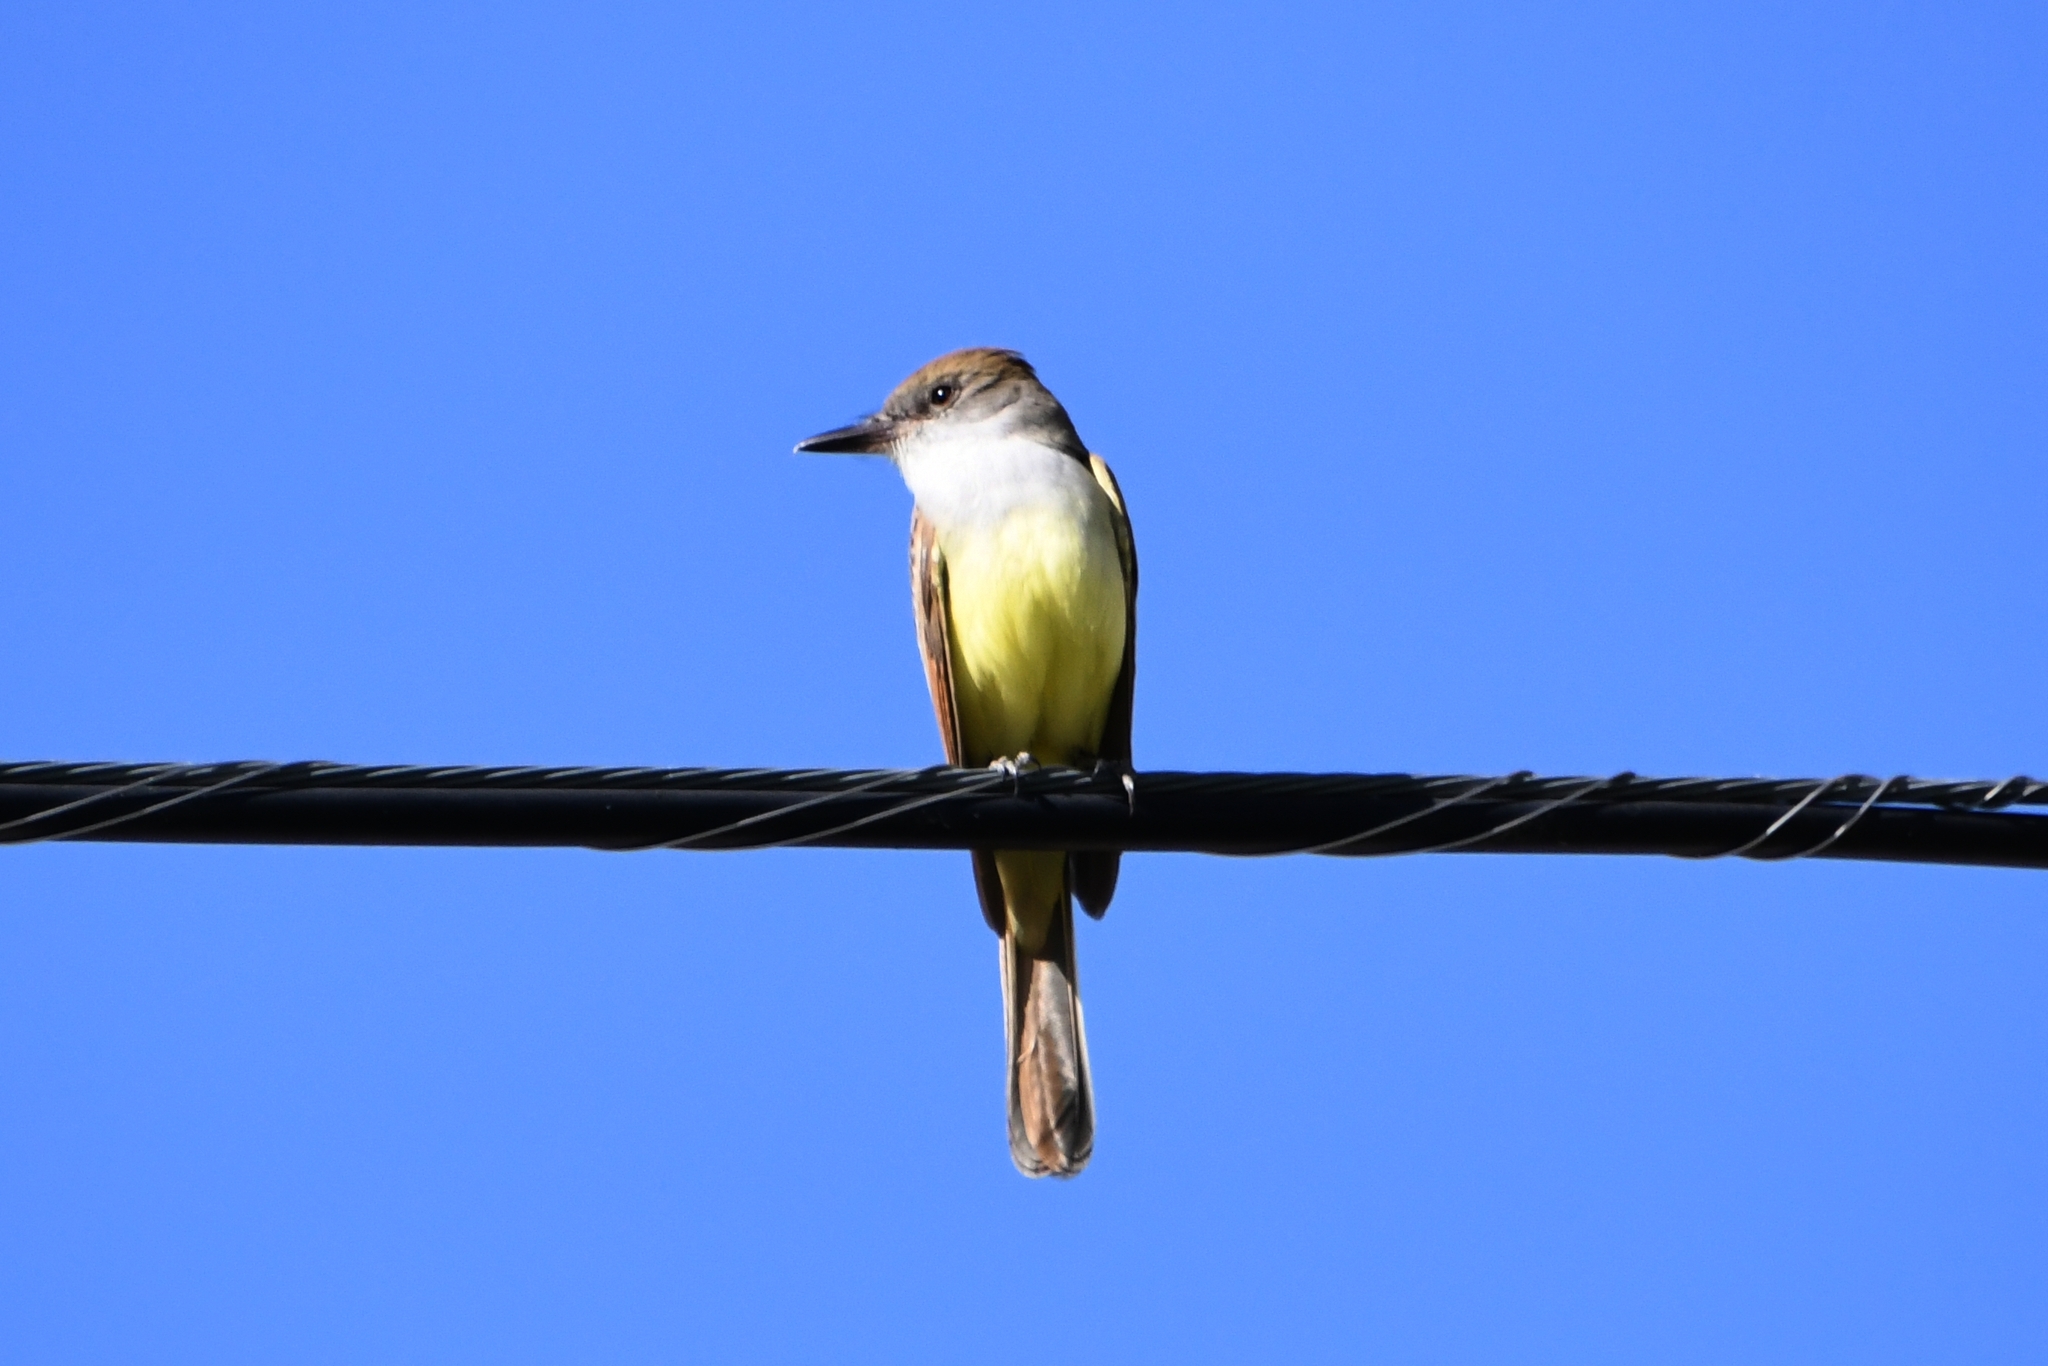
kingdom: Animalia
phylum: Chordata
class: Aves
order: Passeriformes
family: Tyrannidae
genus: Myiarchus
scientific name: Myiarchus tyrannulus
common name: Brown-crested flycatcher
